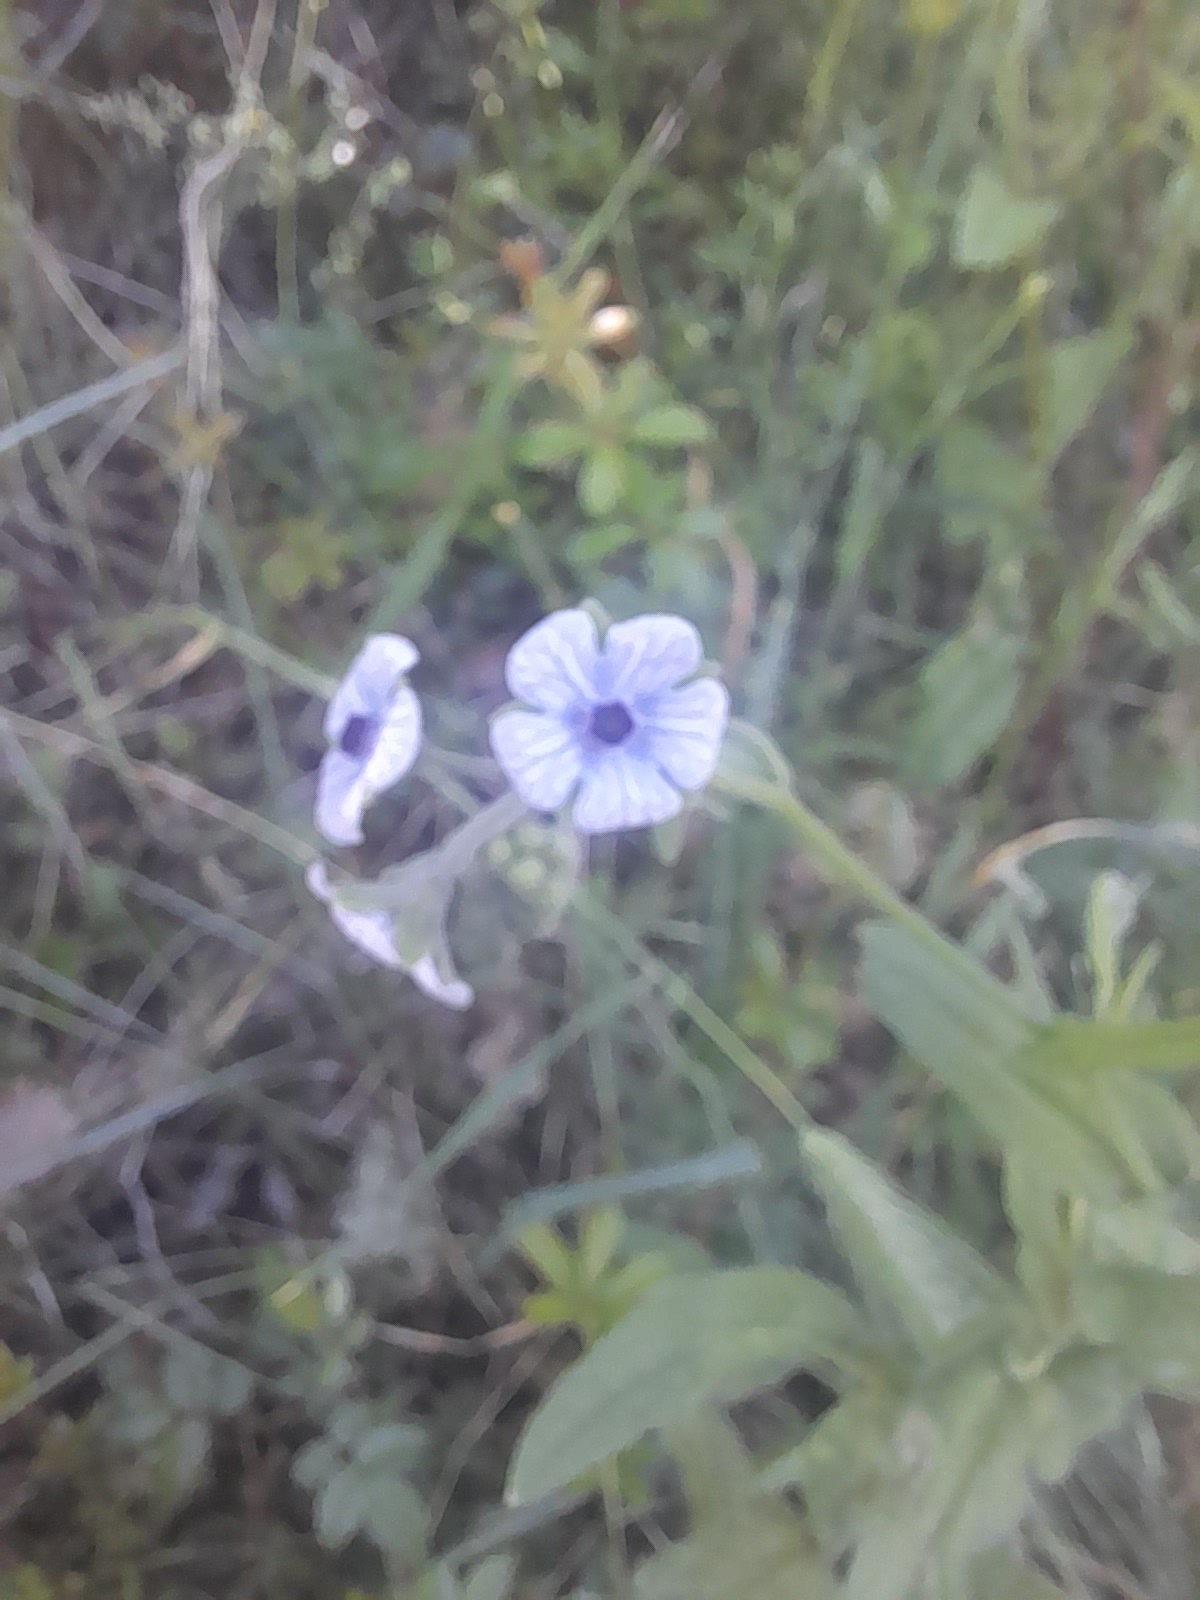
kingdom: Plantae
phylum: Tracheophyta
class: Magnoliopsida
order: Boraginales
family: Boraginaceae
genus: Cynoglossum
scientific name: Cynoglossum creticum
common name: Blue hound's tongue
